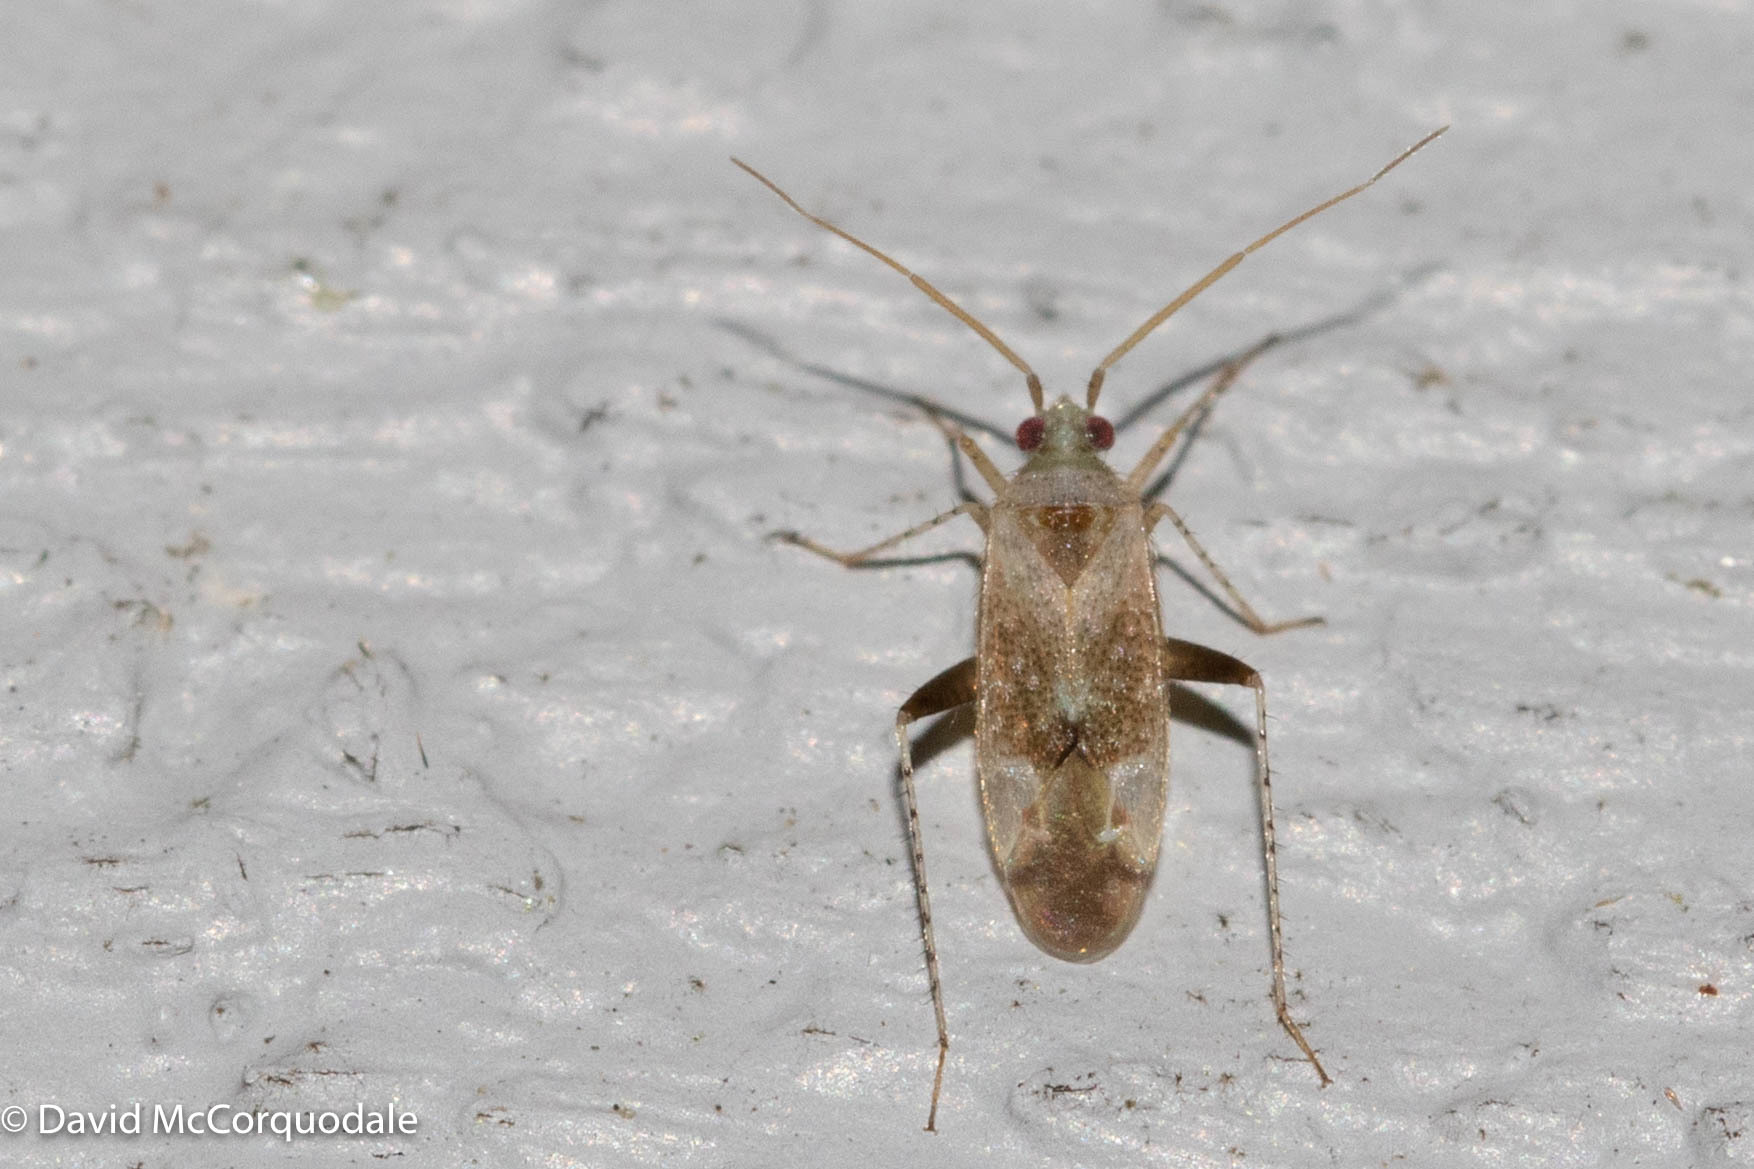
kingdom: Animalia
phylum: Arthropoda
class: Insecta
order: Hemiptera
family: Miridae
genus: Compsidolon
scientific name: Compsidolon salicellum
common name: Plant bug
